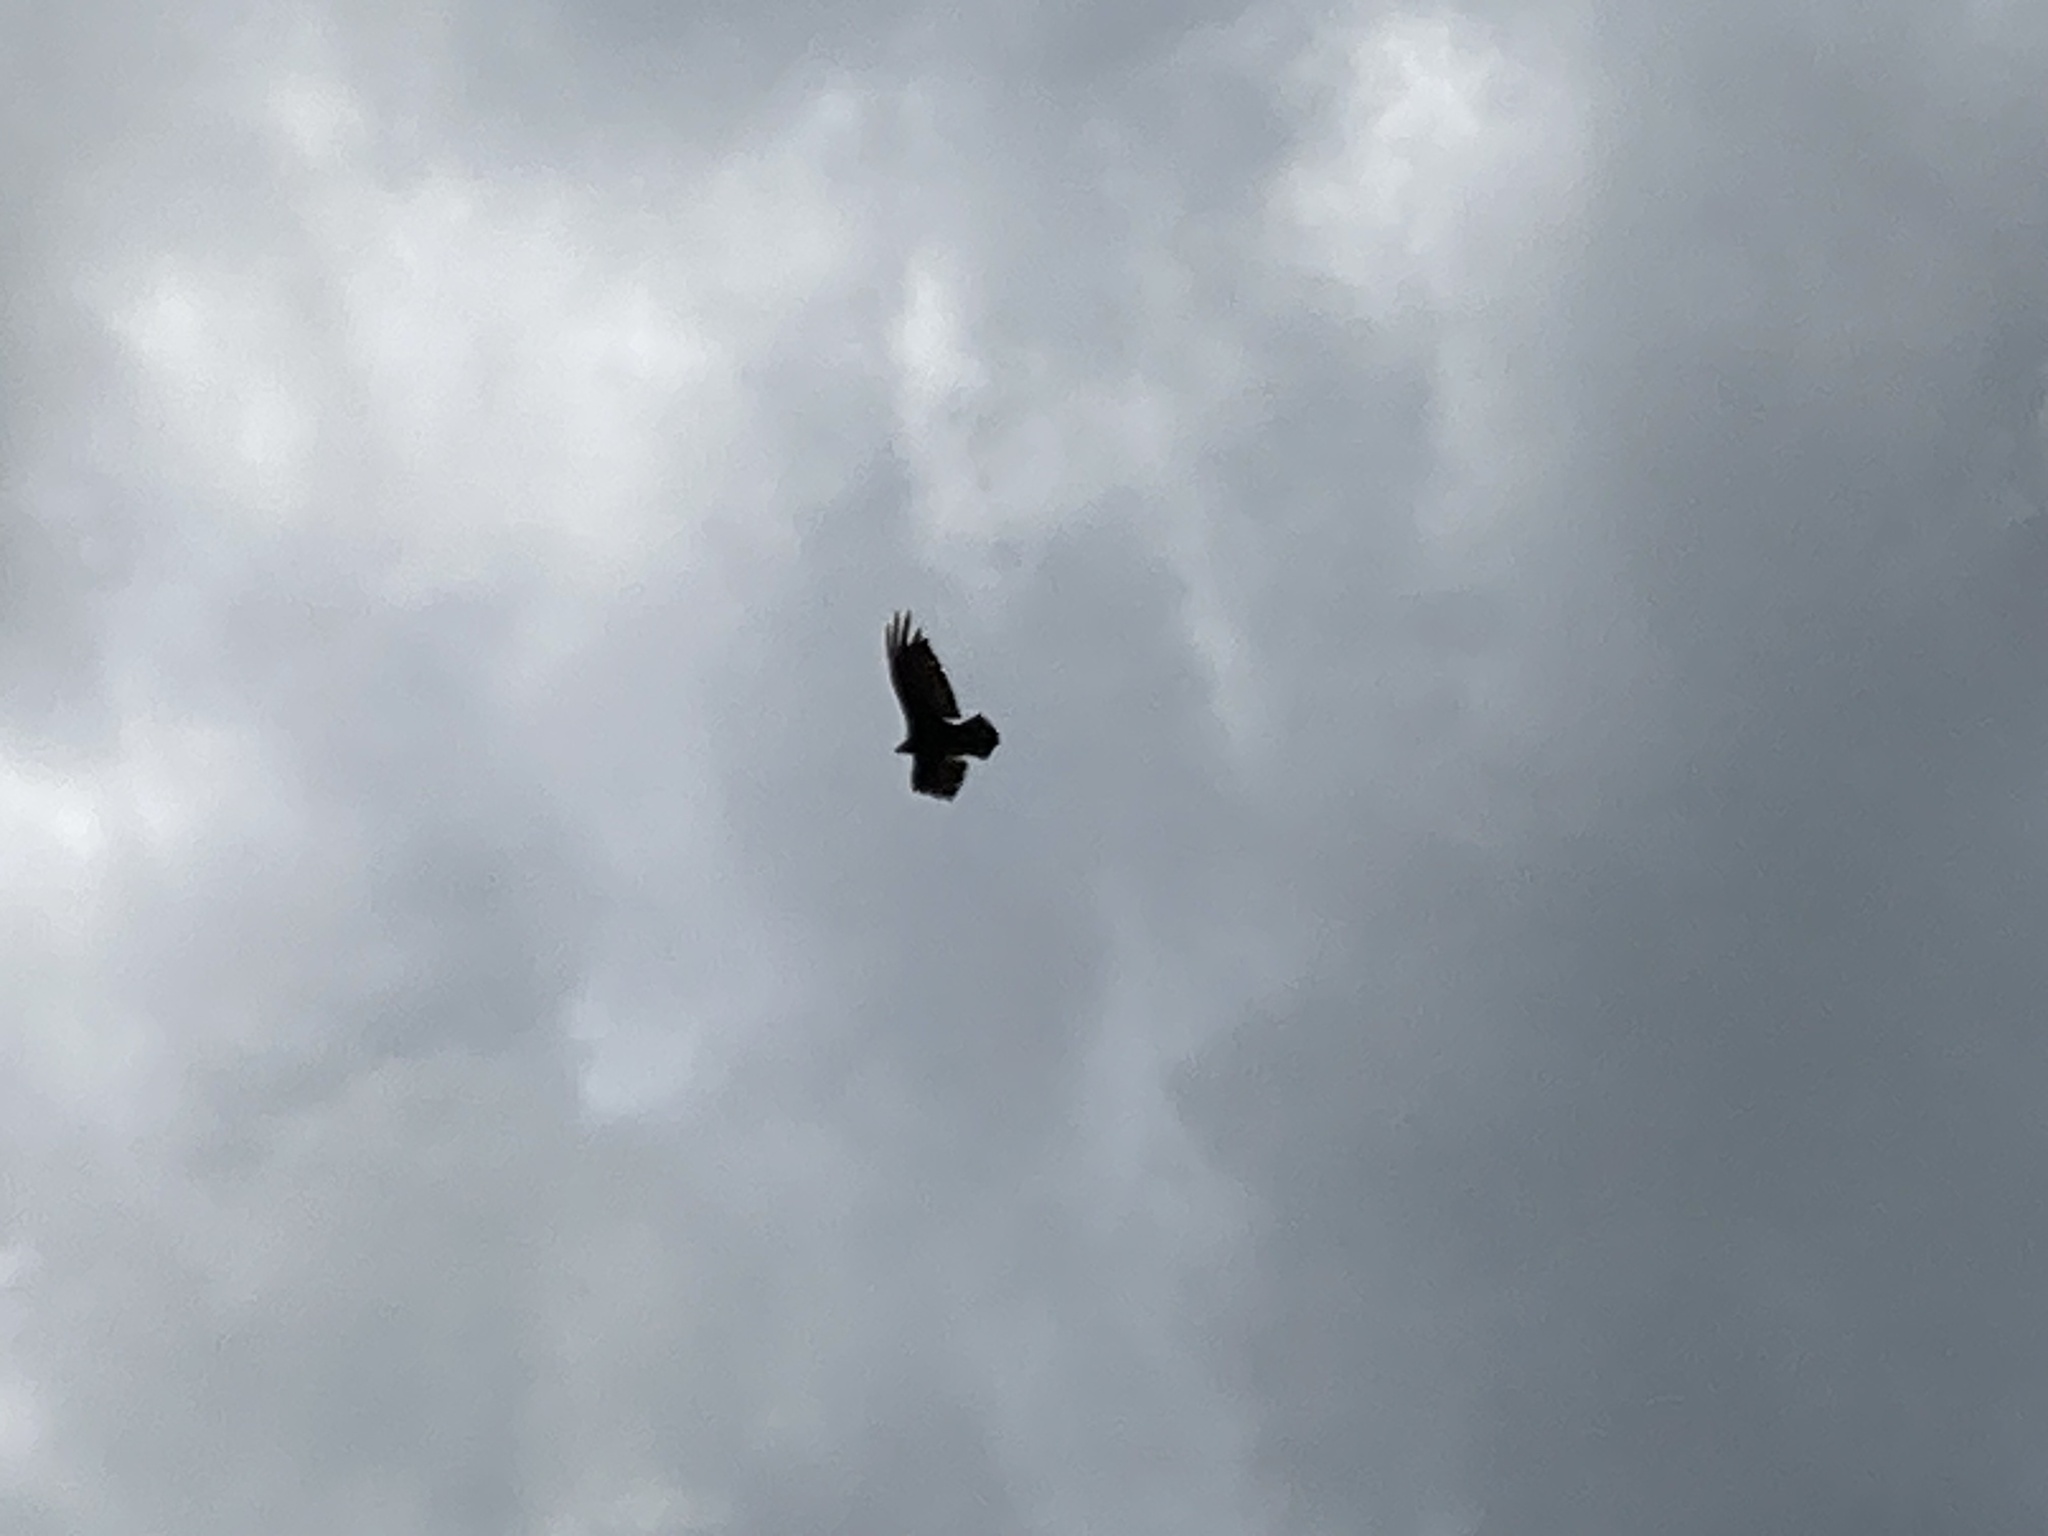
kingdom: Animalia
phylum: Chordata
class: Aves
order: Accipitriformes
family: Cathartidae
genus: Cathartes
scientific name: Cathartes aura
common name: Turkey vulture
